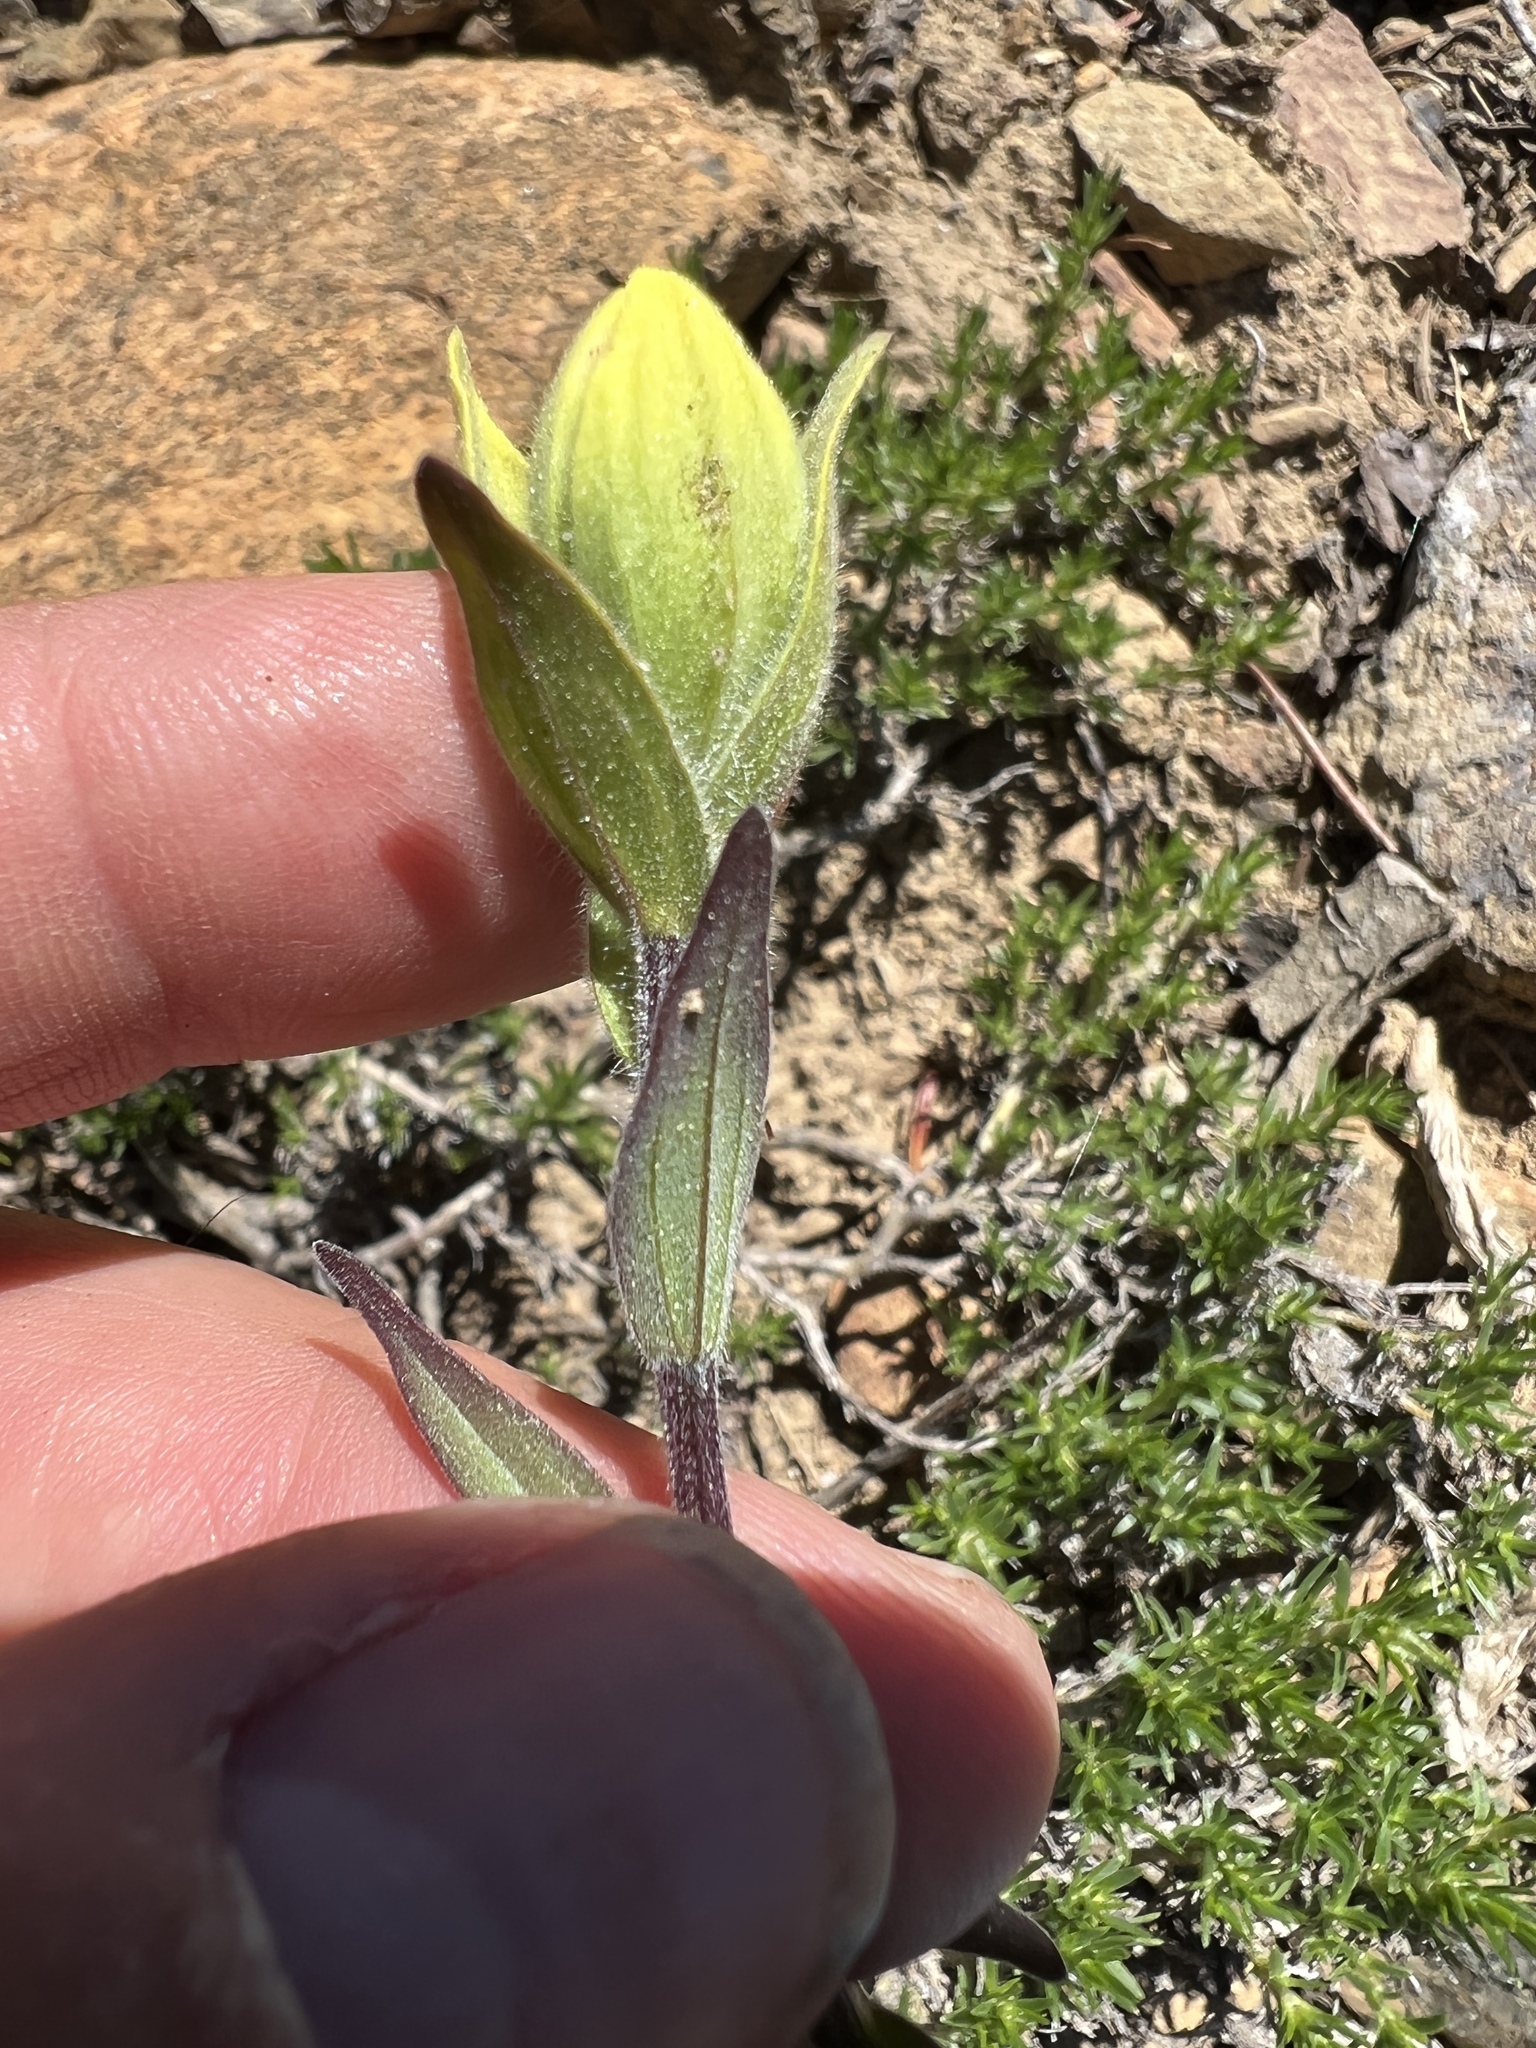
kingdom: Plantae
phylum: Tracheophyta
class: Magnoliopsida
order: Lamiales
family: Orobanchaceae
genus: Castilleja
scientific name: Castilleja elmeri
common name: Elmer's paintbrush
